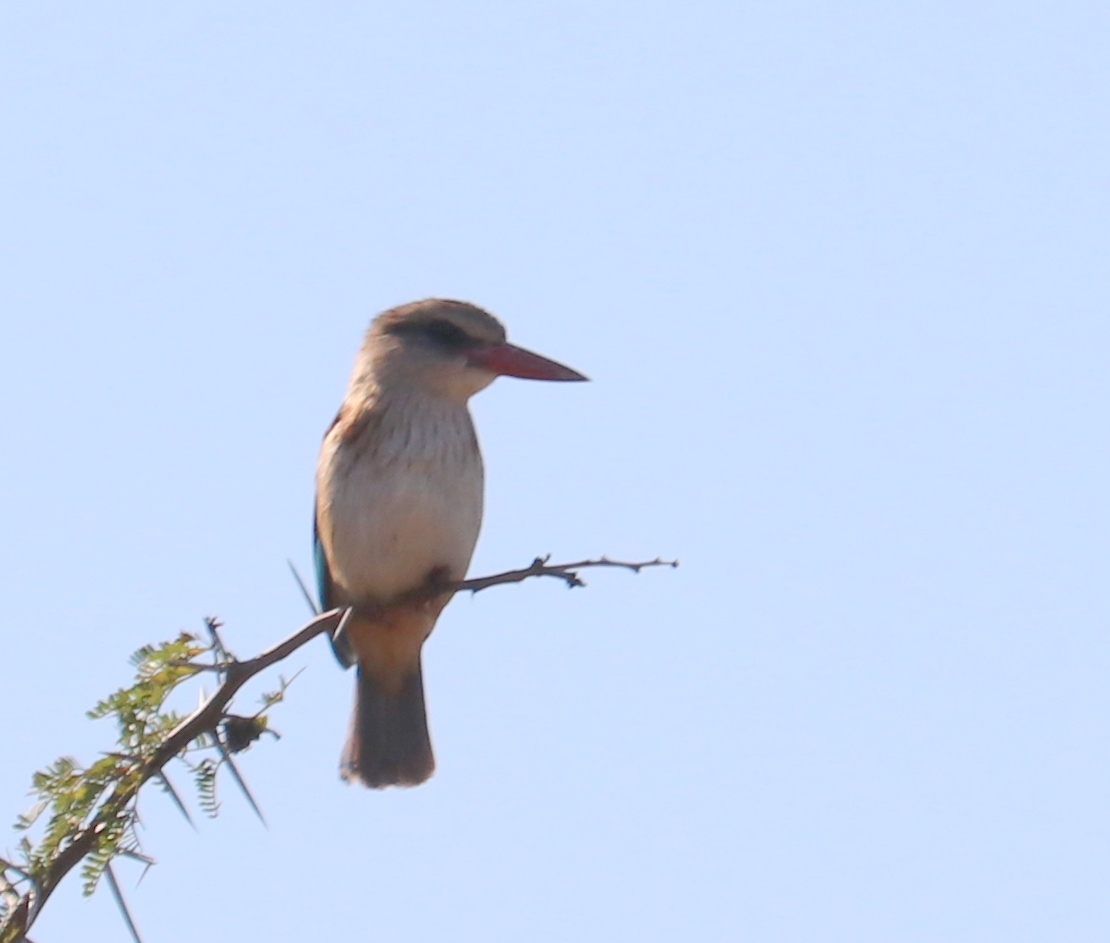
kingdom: Animalia
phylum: Chordata
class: Aves
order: Coraciiformes
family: Alcedinidae
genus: Halcyon
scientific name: Halcyon albiventris
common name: Brown-hooded kingfisher
